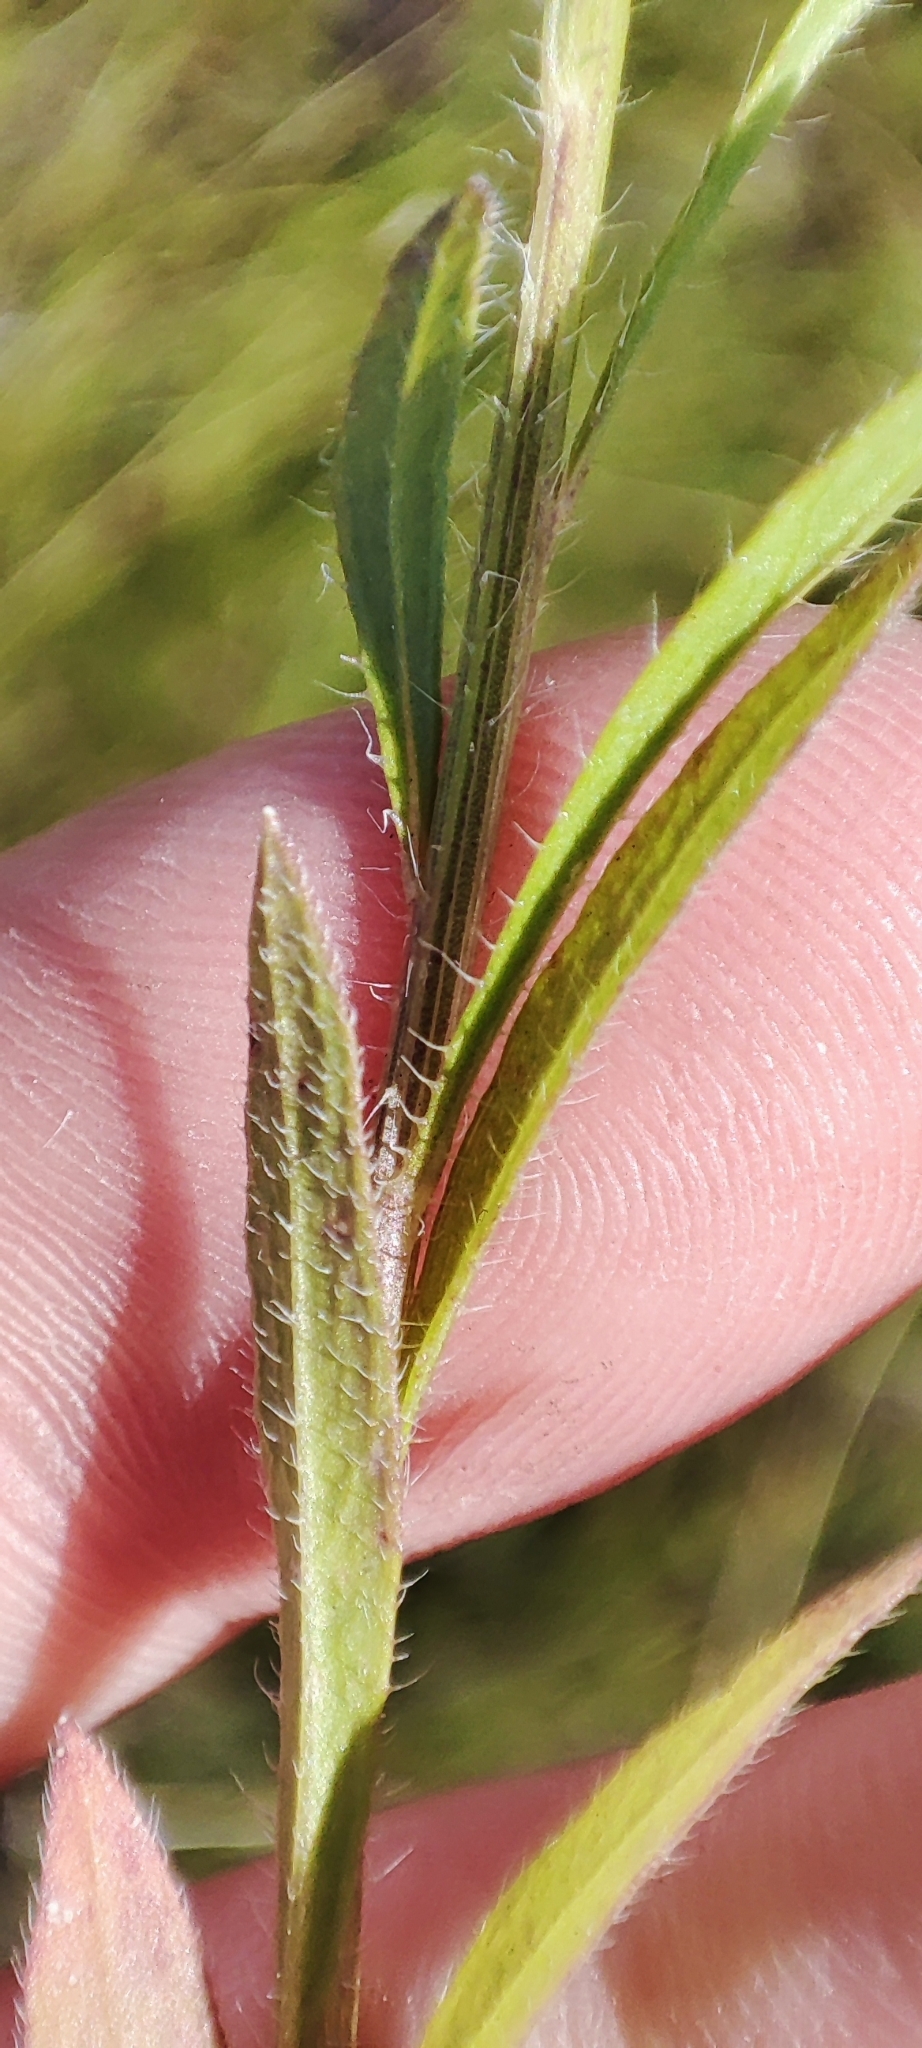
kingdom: Plantae
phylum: Tracheophyta
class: Magnoliopsida
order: Asterales
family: Asteraceae
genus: Erigeron
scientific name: Erigeron canadensis
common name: Canadian fleabane
